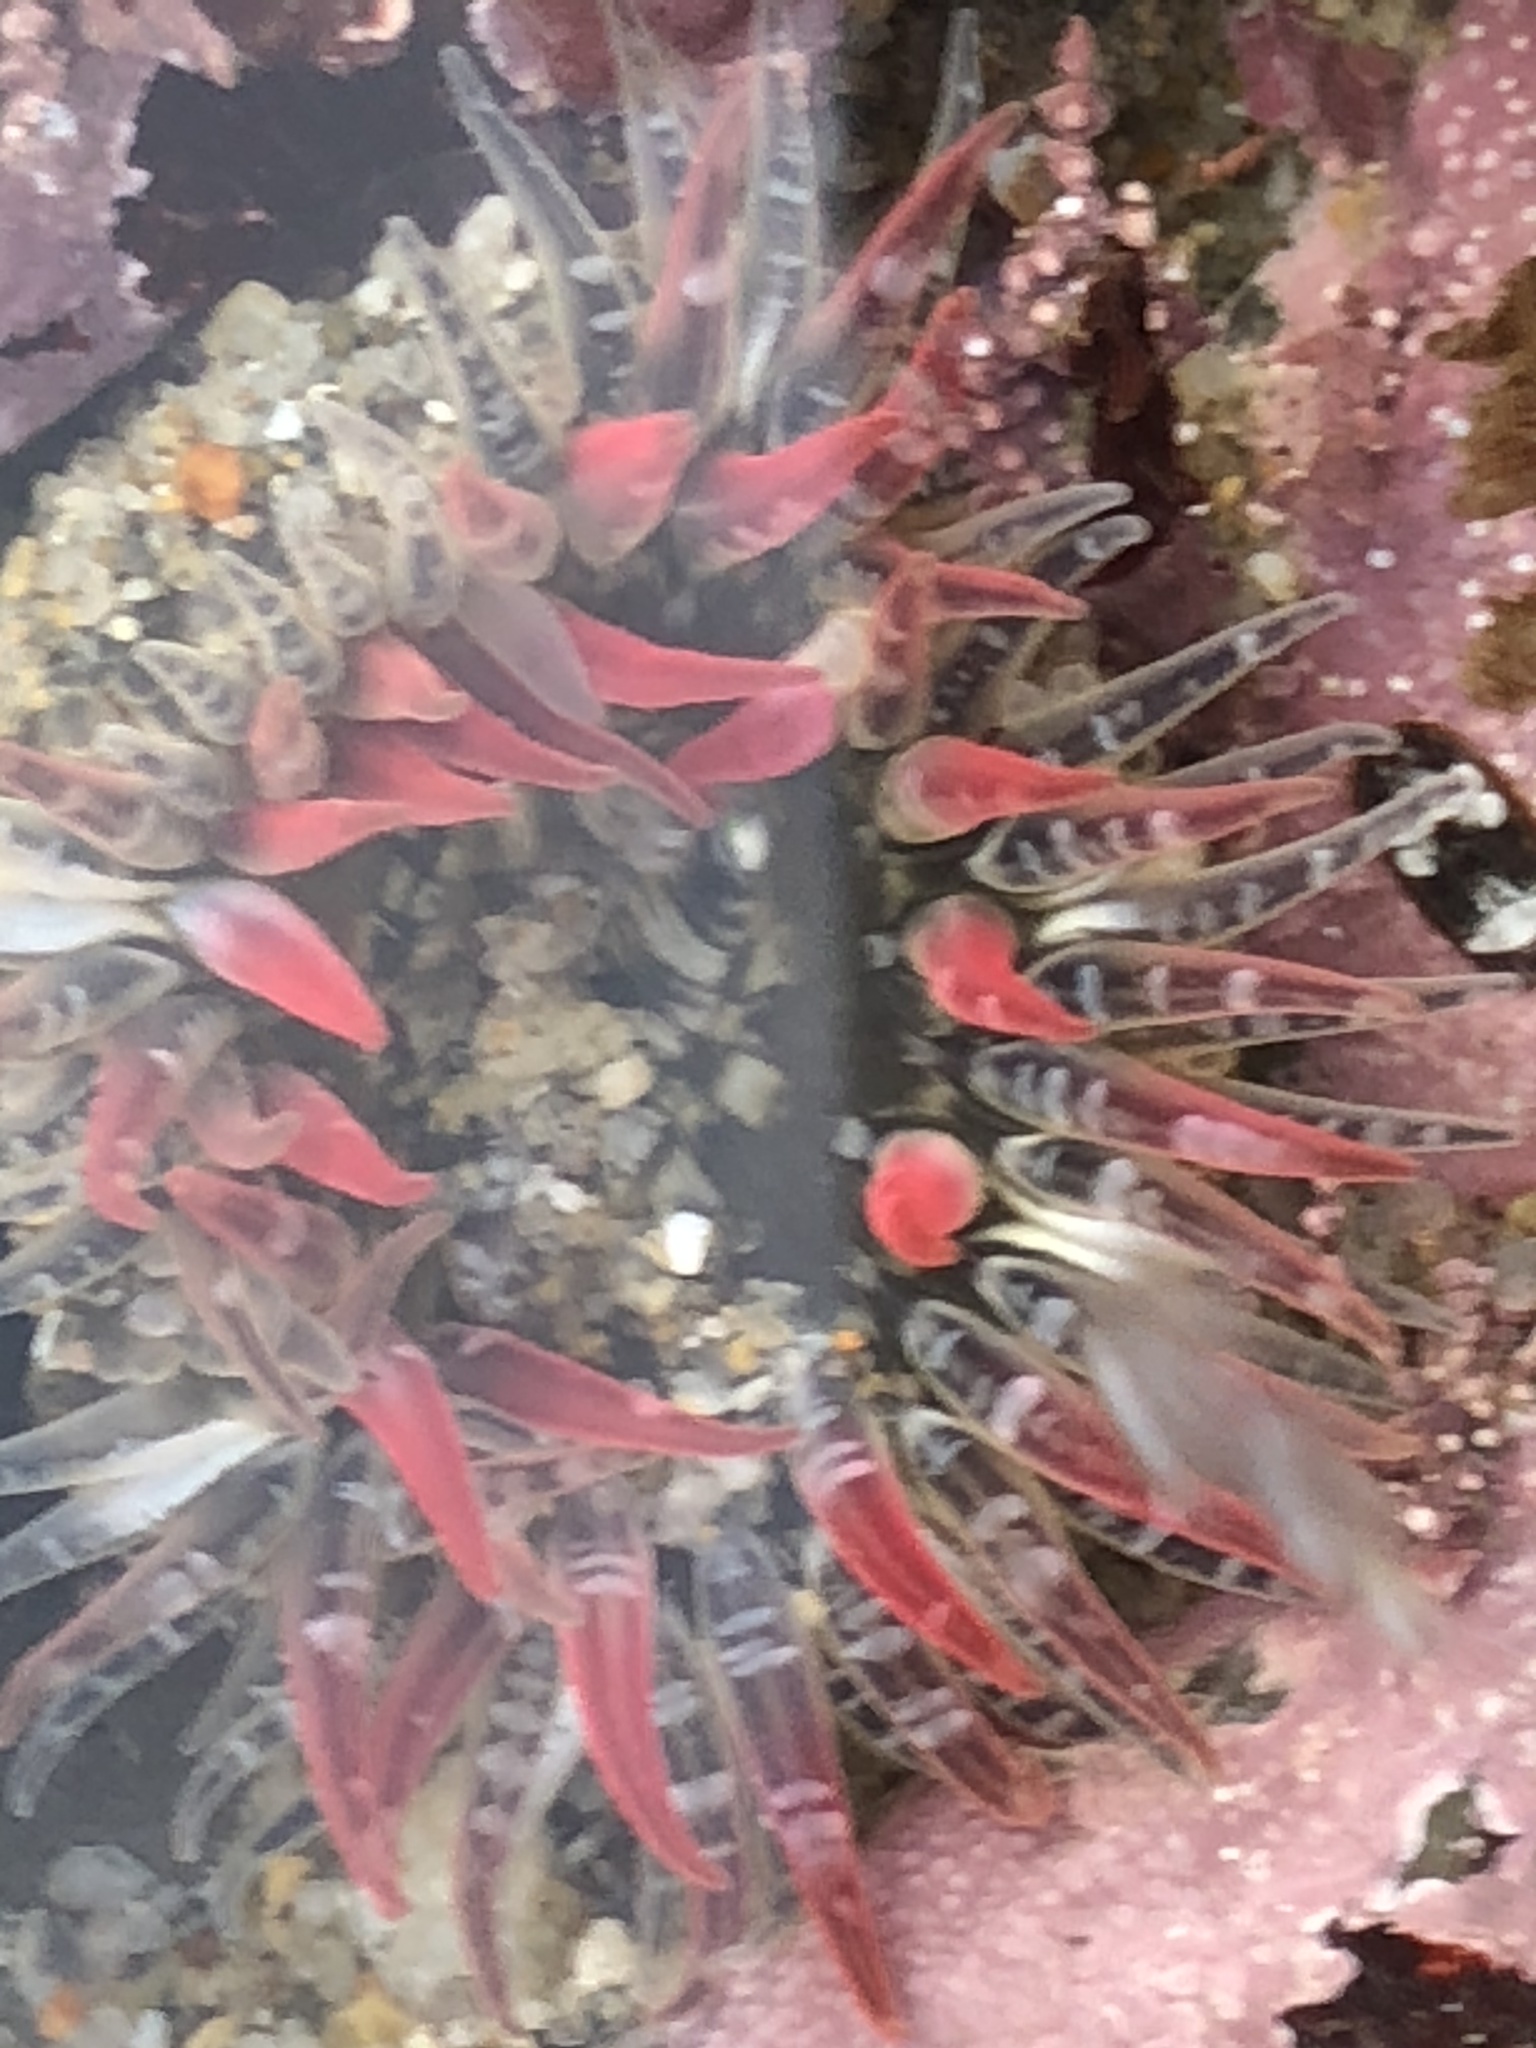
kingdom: Animalia
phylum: Cnidaria
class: Anthozoa
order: Actiniaria
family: Actiniidae
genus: Anthopleura
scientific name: Anthopleura artemisia
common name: Buried sea anemone
